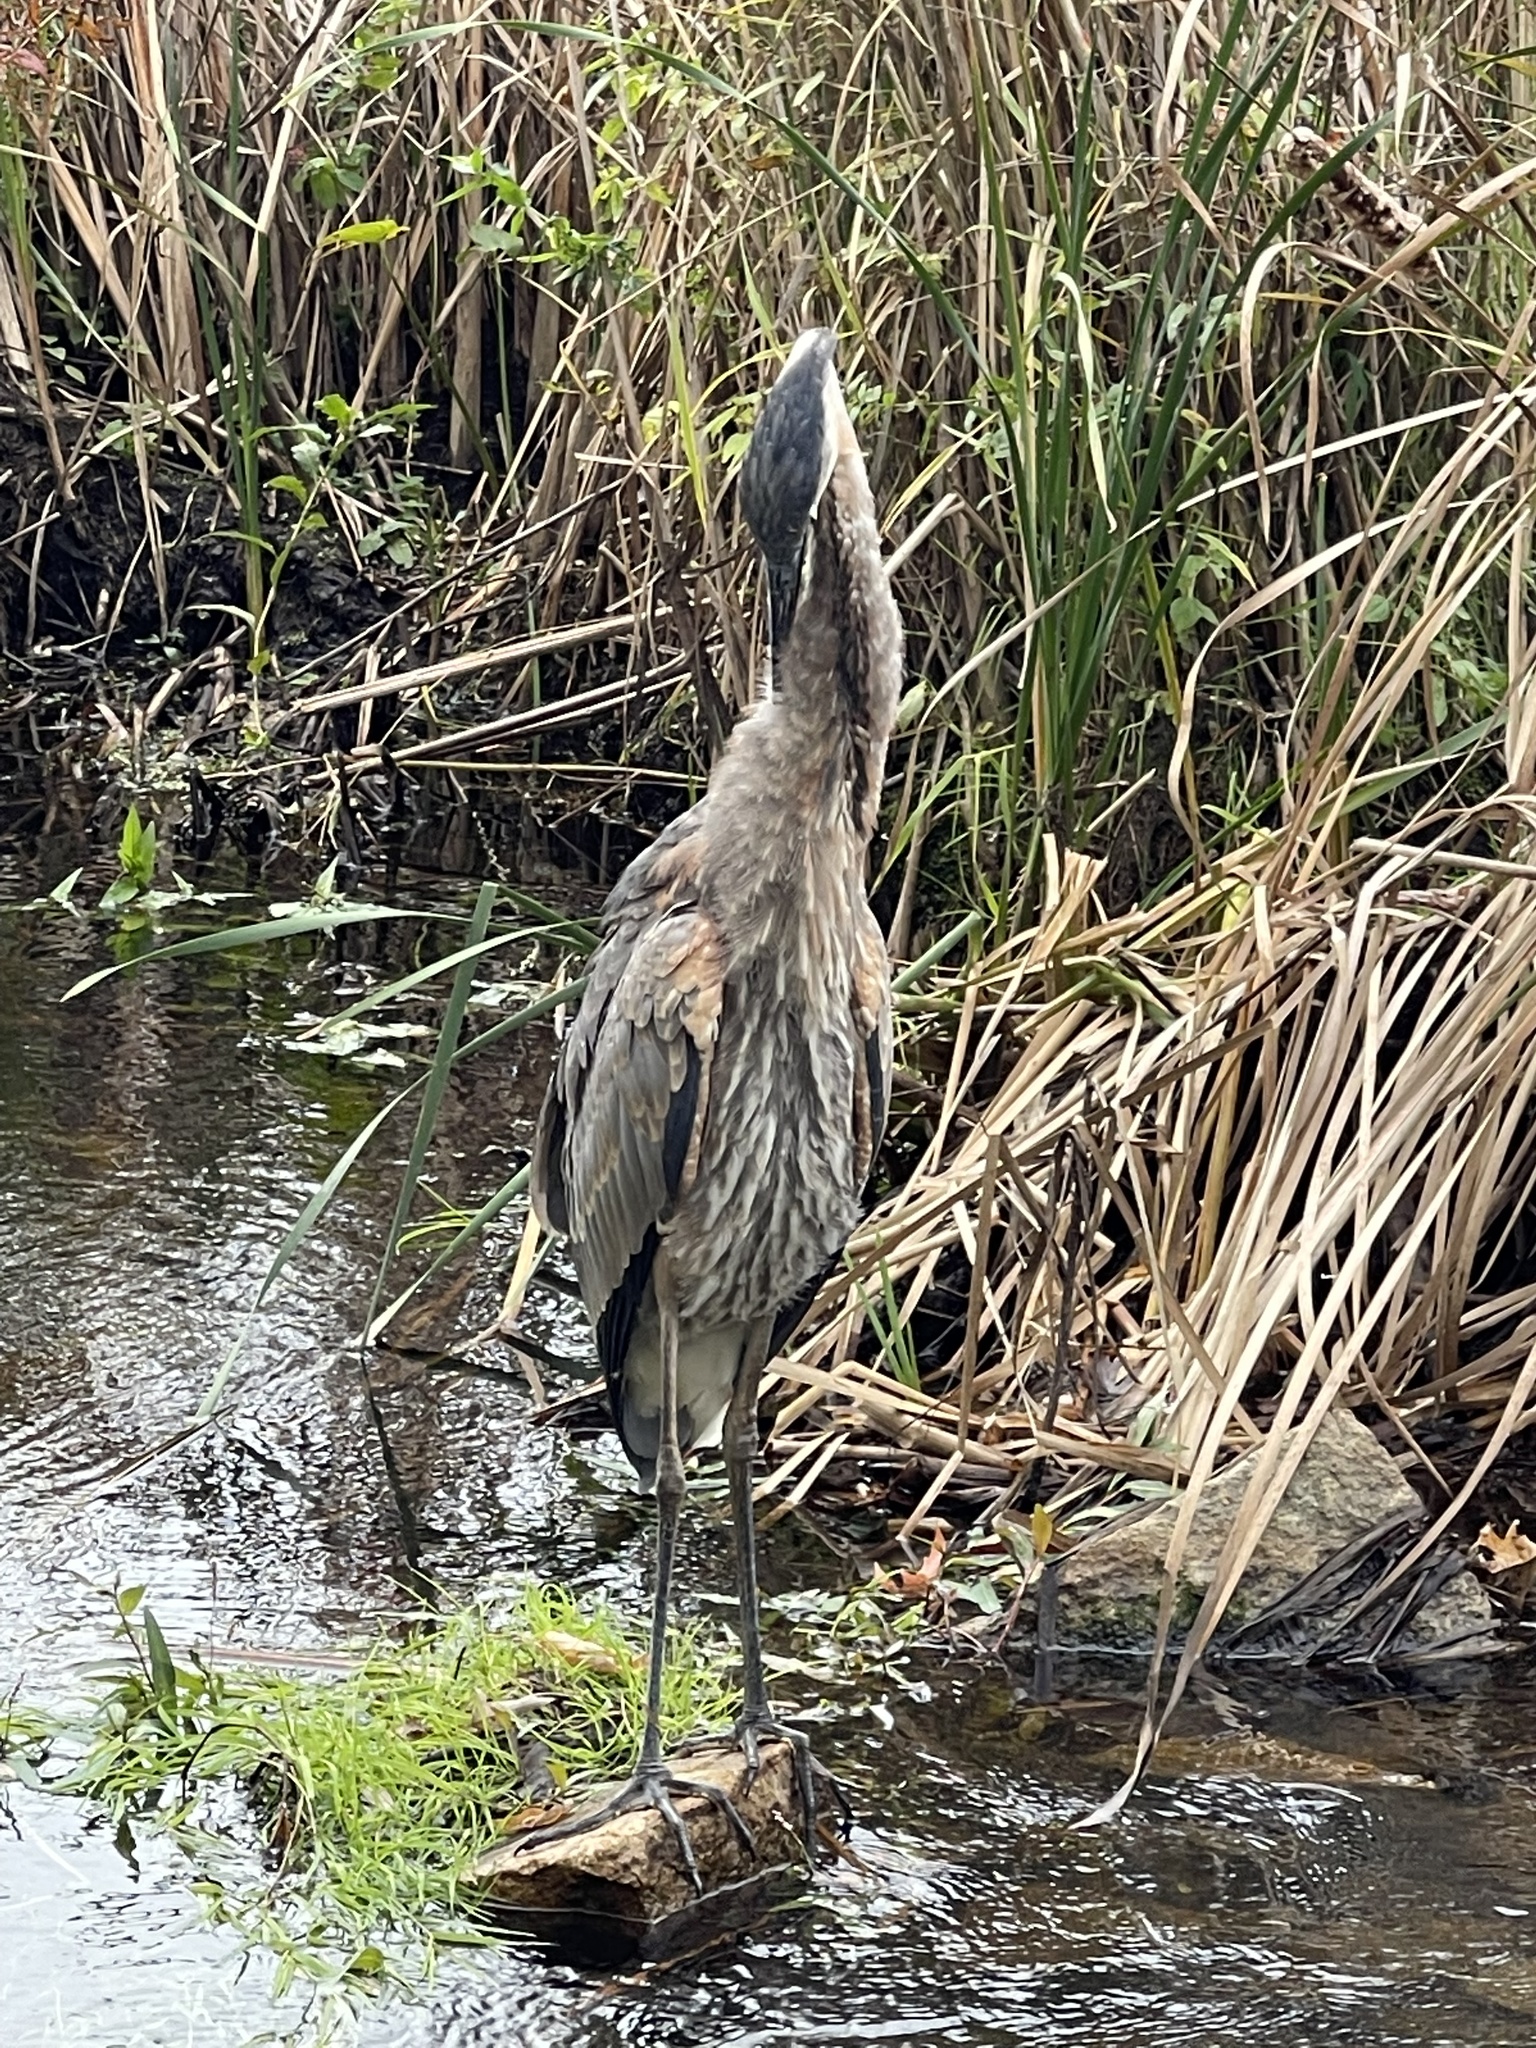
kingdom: Animalia
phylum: Chordata
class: Aves
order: Pelecaniformes
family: Ardeidae
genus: Ardea
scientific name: Ardea herodias
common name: Great blue heron
